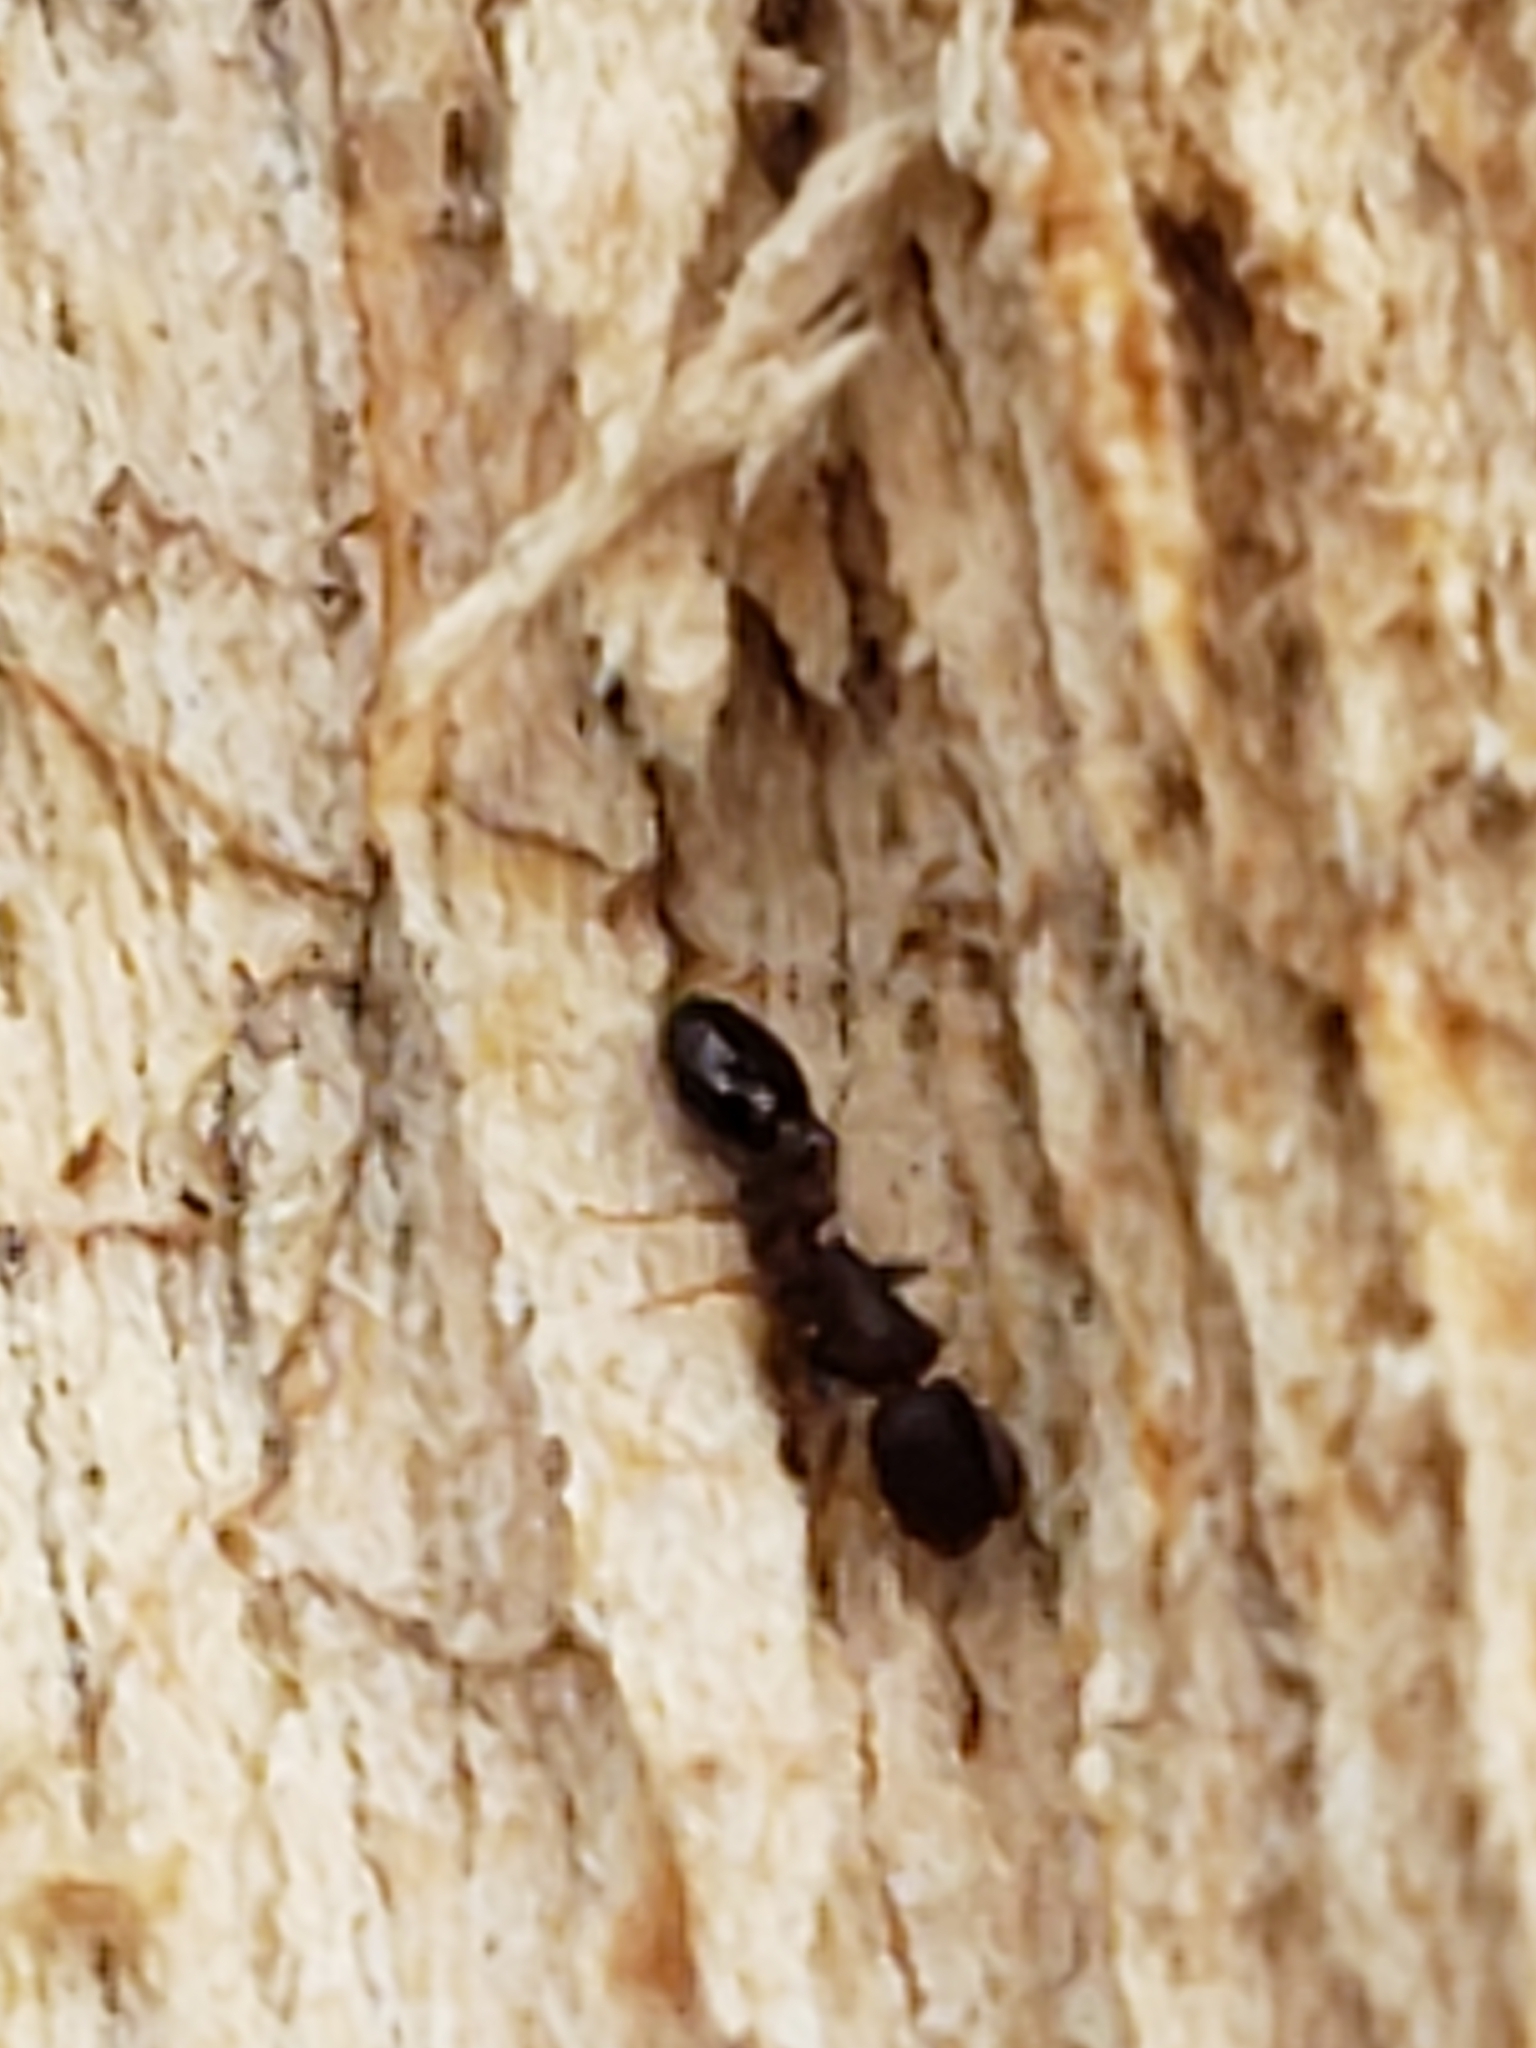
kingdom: Animalia
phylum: Arthropoda
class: Insecta
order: Hymenoptera
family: Formicidae
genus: Leptothorax
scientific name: Leptothorax schaumii
